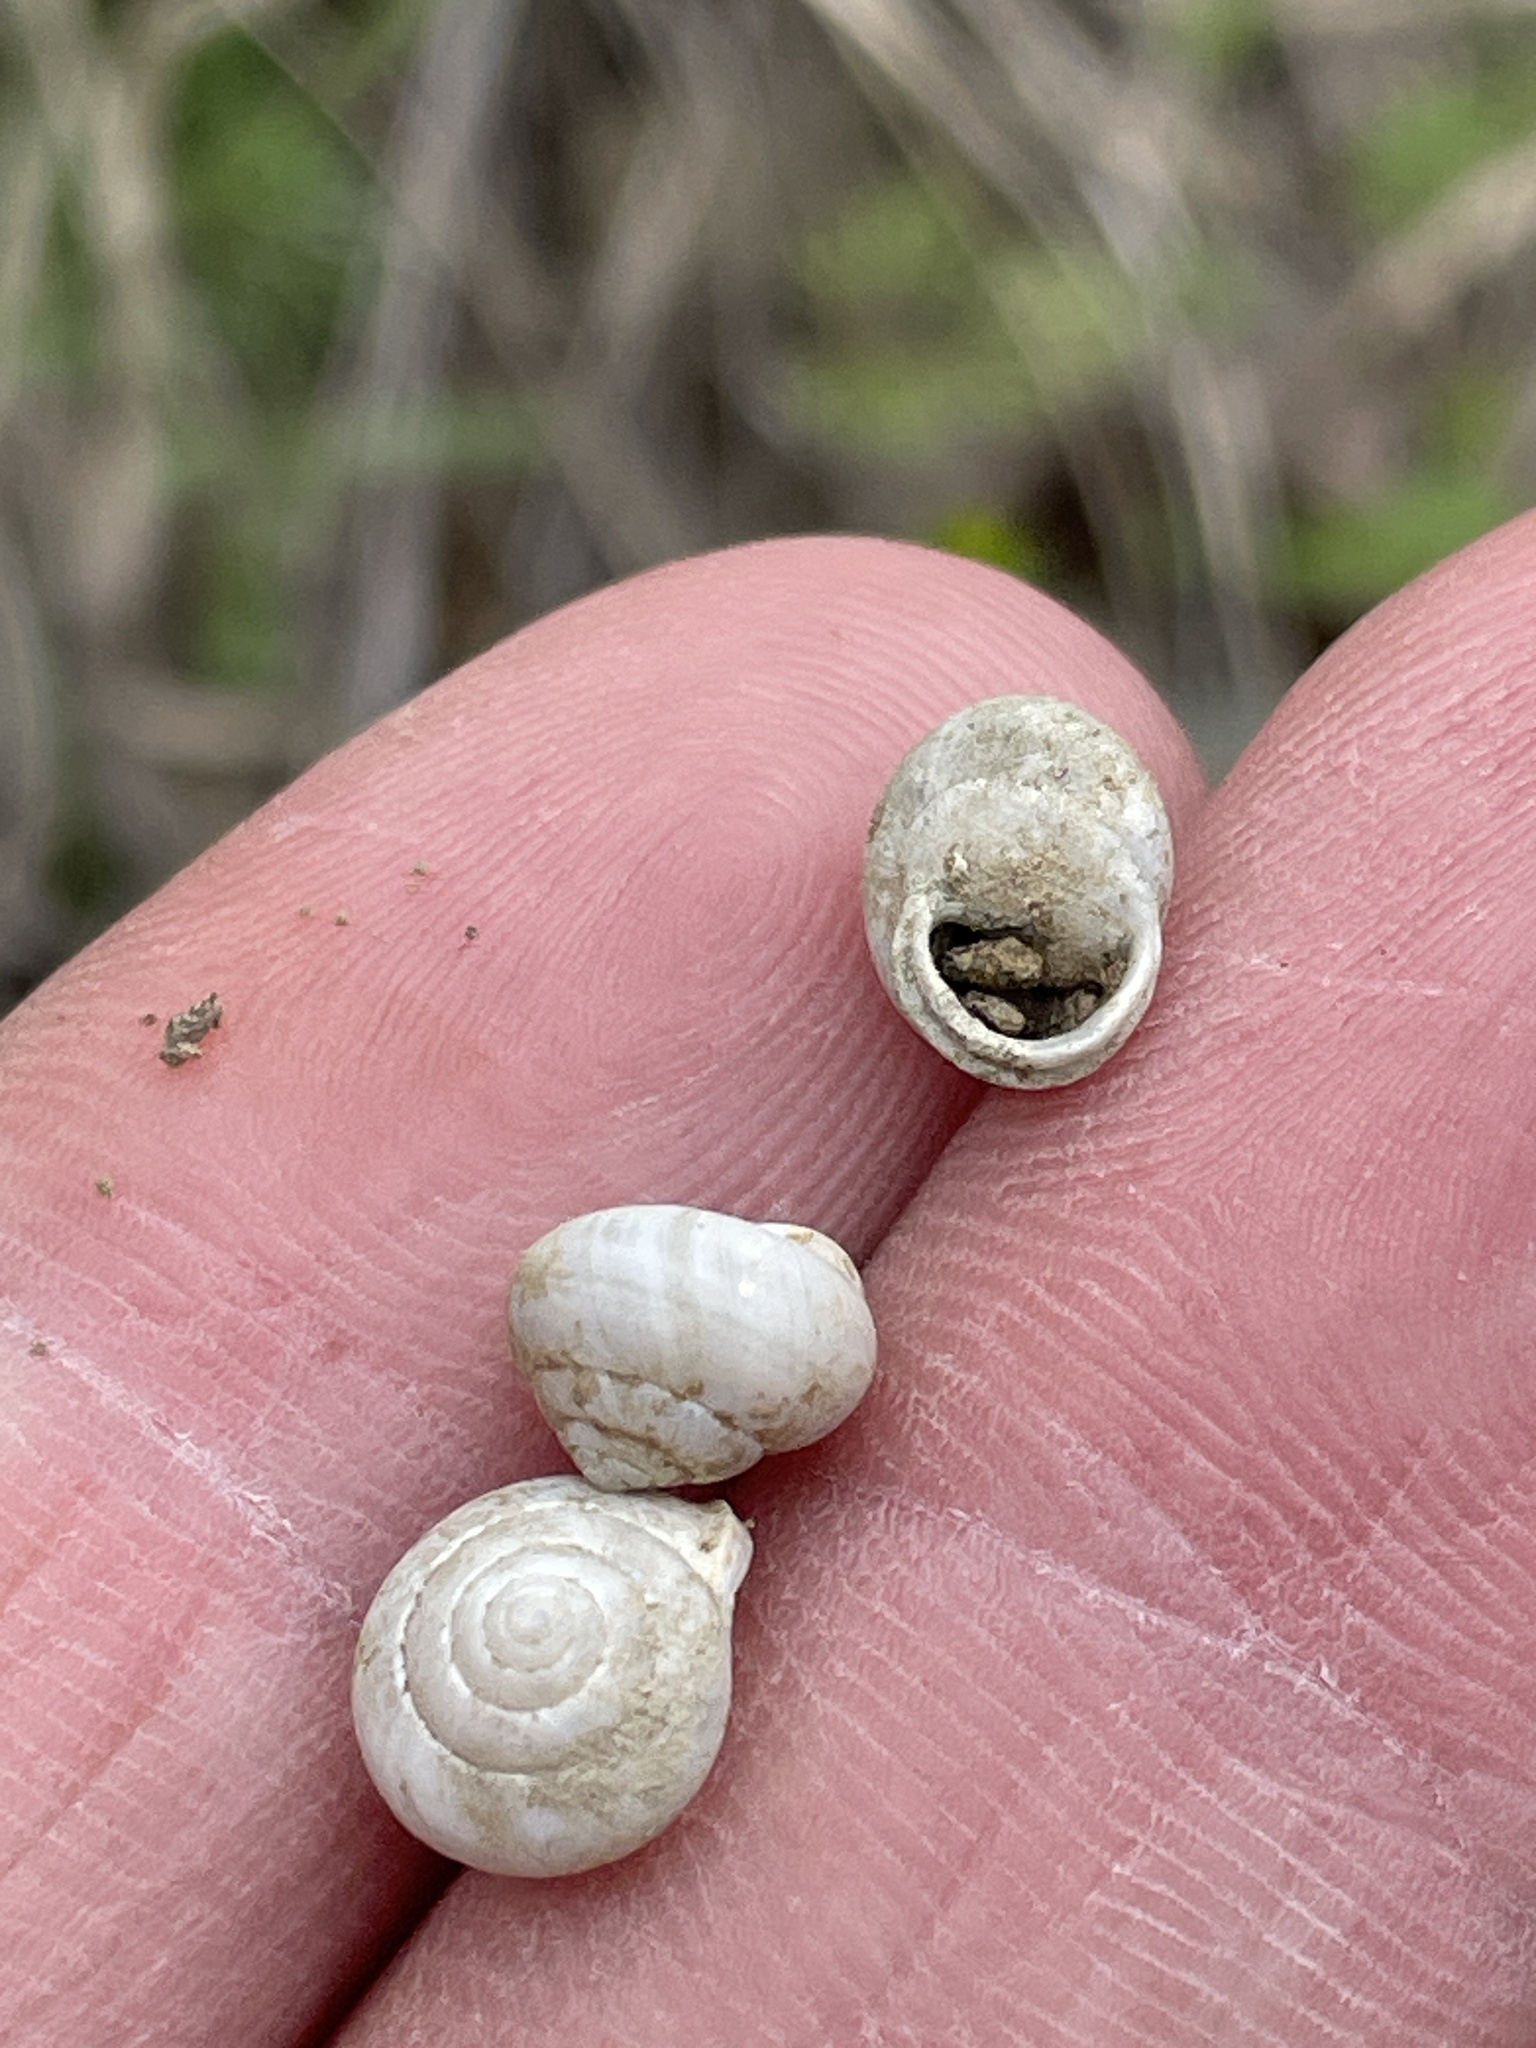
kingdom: Animalia
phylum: Mollusca
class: Gastropoda
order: Cycloneritida
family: Helicinidae
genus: Helicina
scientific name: Helicina orbiculata
